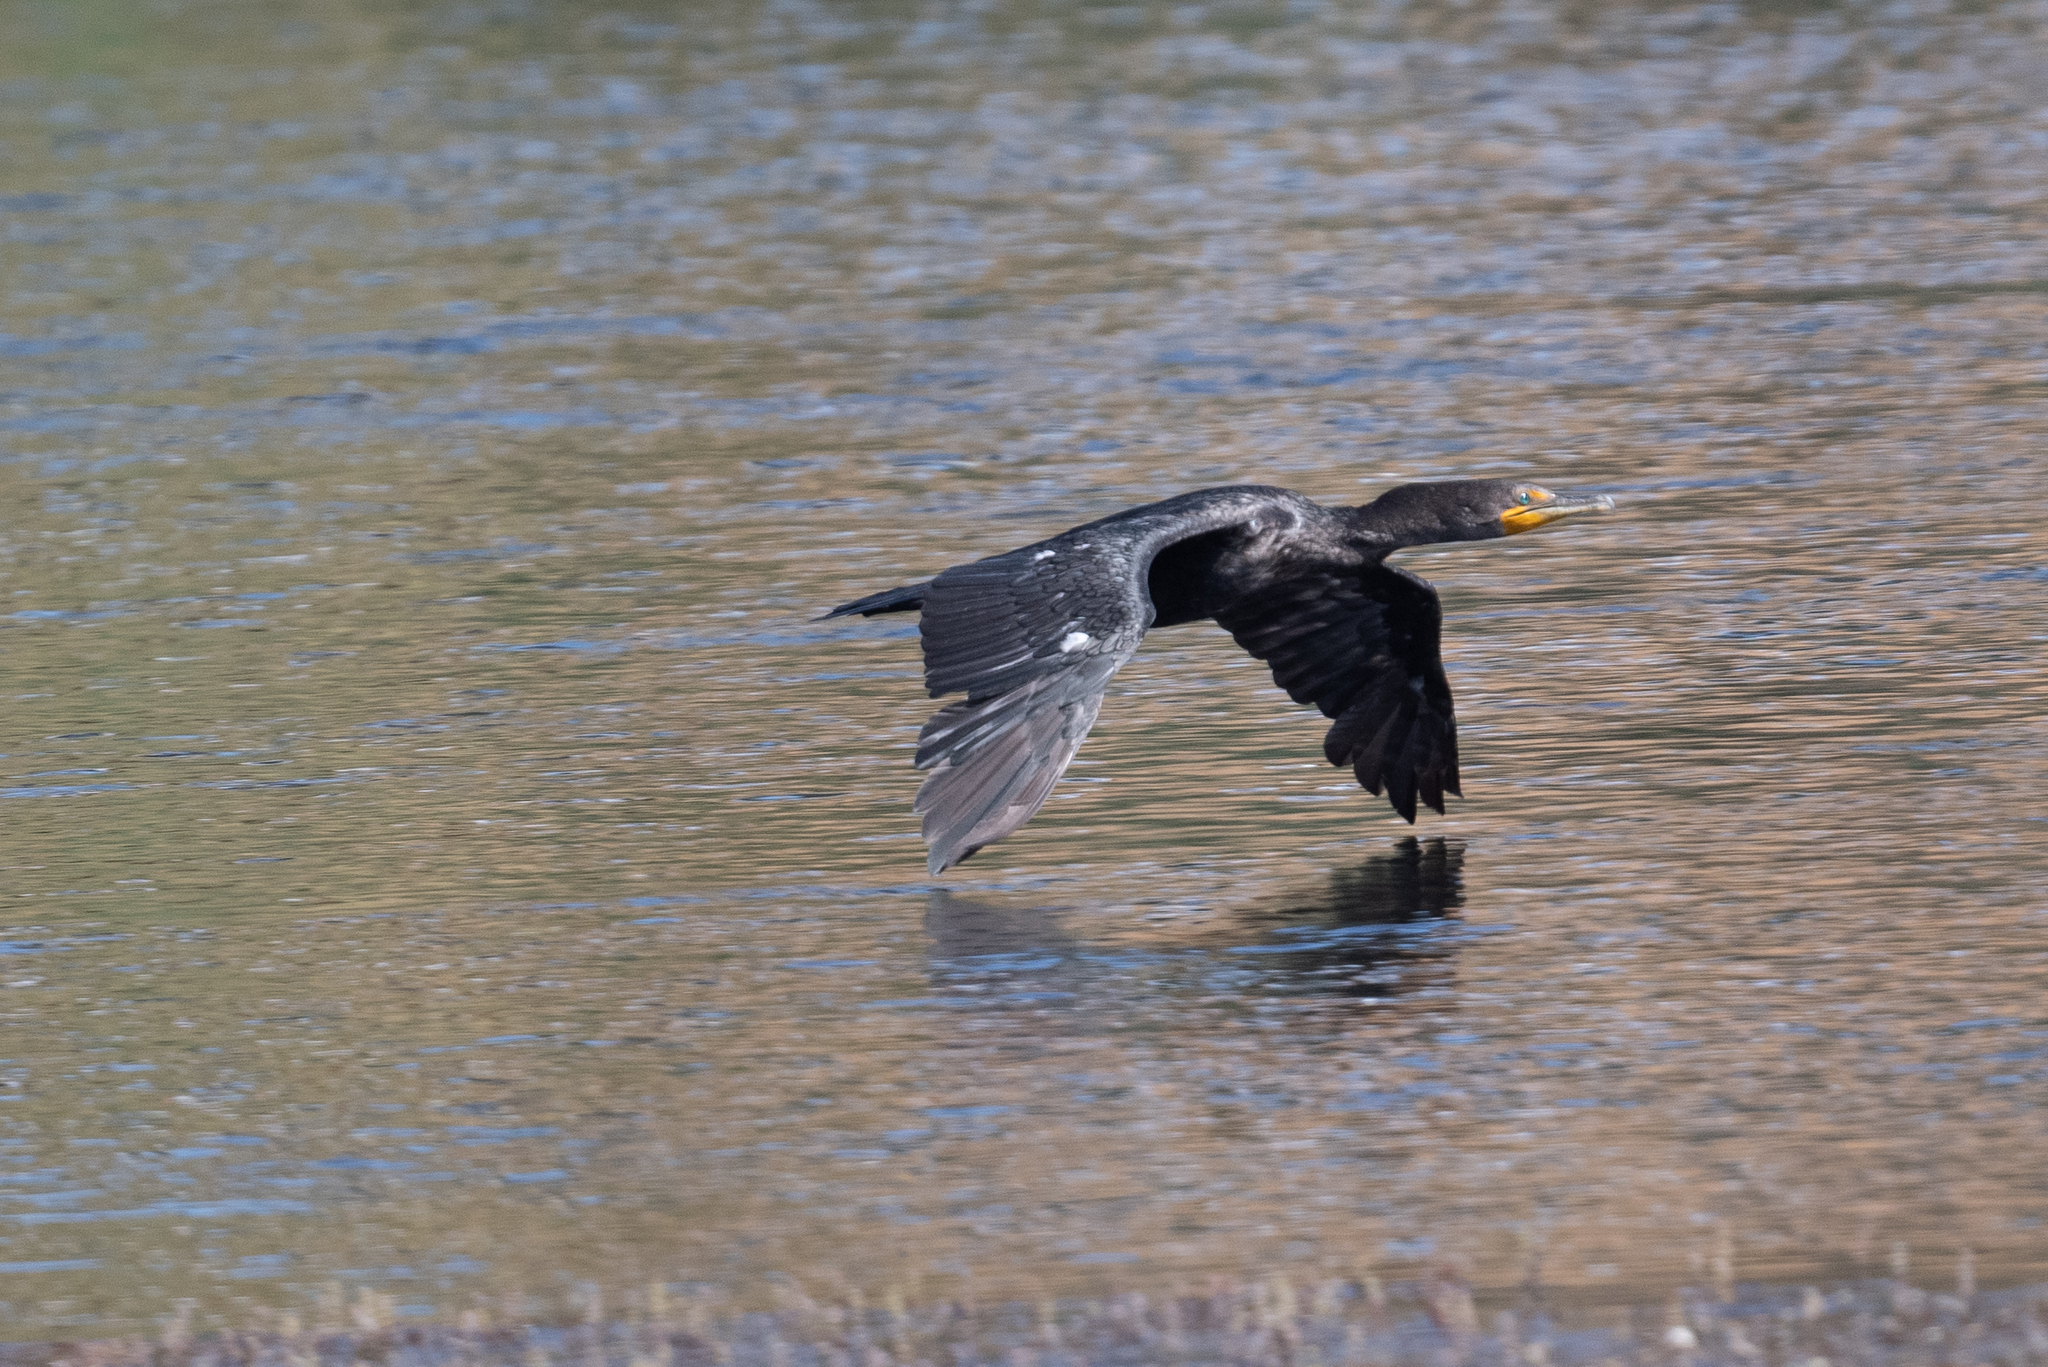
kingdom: Animalia
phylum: Chordata
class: Aves
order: Suliformes
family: Phalacrocoracidae
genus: Phalacrocorax
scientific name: Phalacrocorax auritus
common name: Double-crested cormorant
